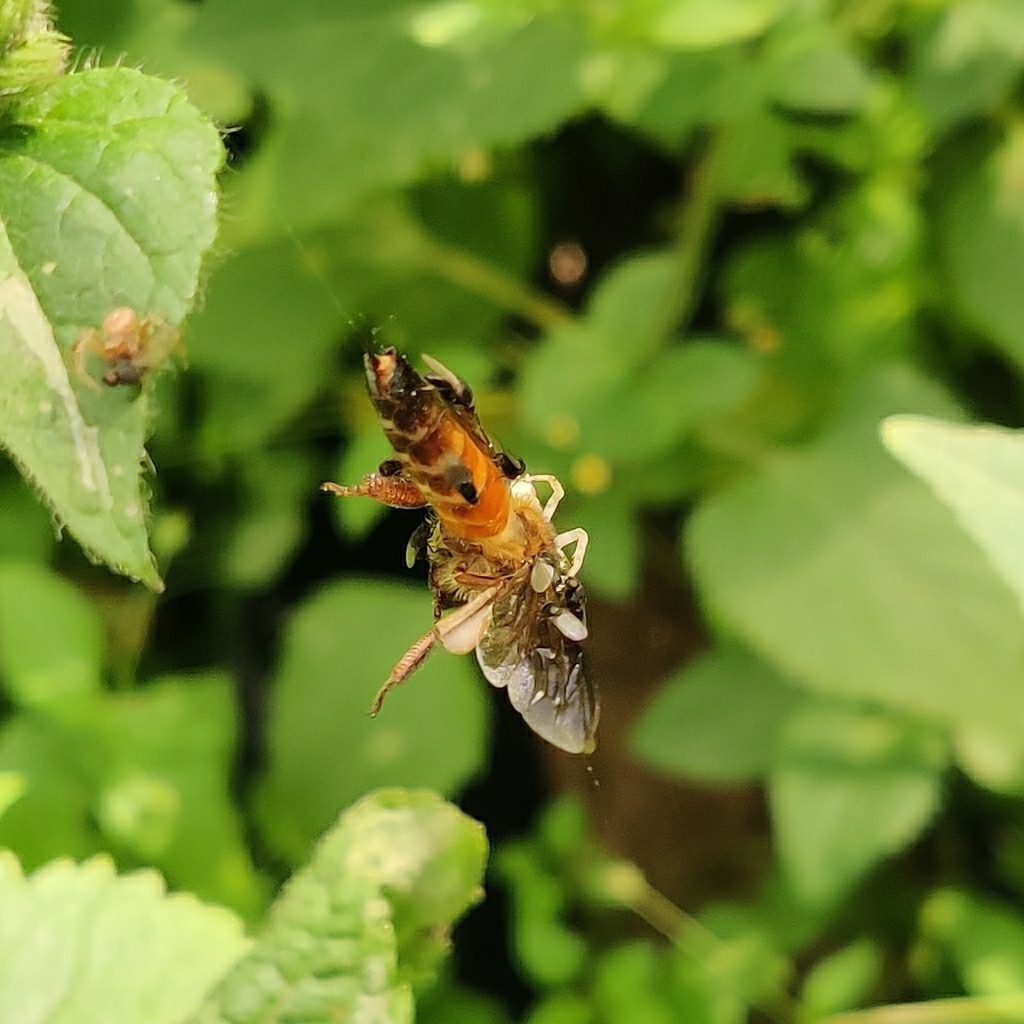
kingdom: Animalia
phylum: Arthropoda
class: Insecta
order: Hymenoptera
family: Apidae
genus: Apis
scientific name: Apis dorsata
